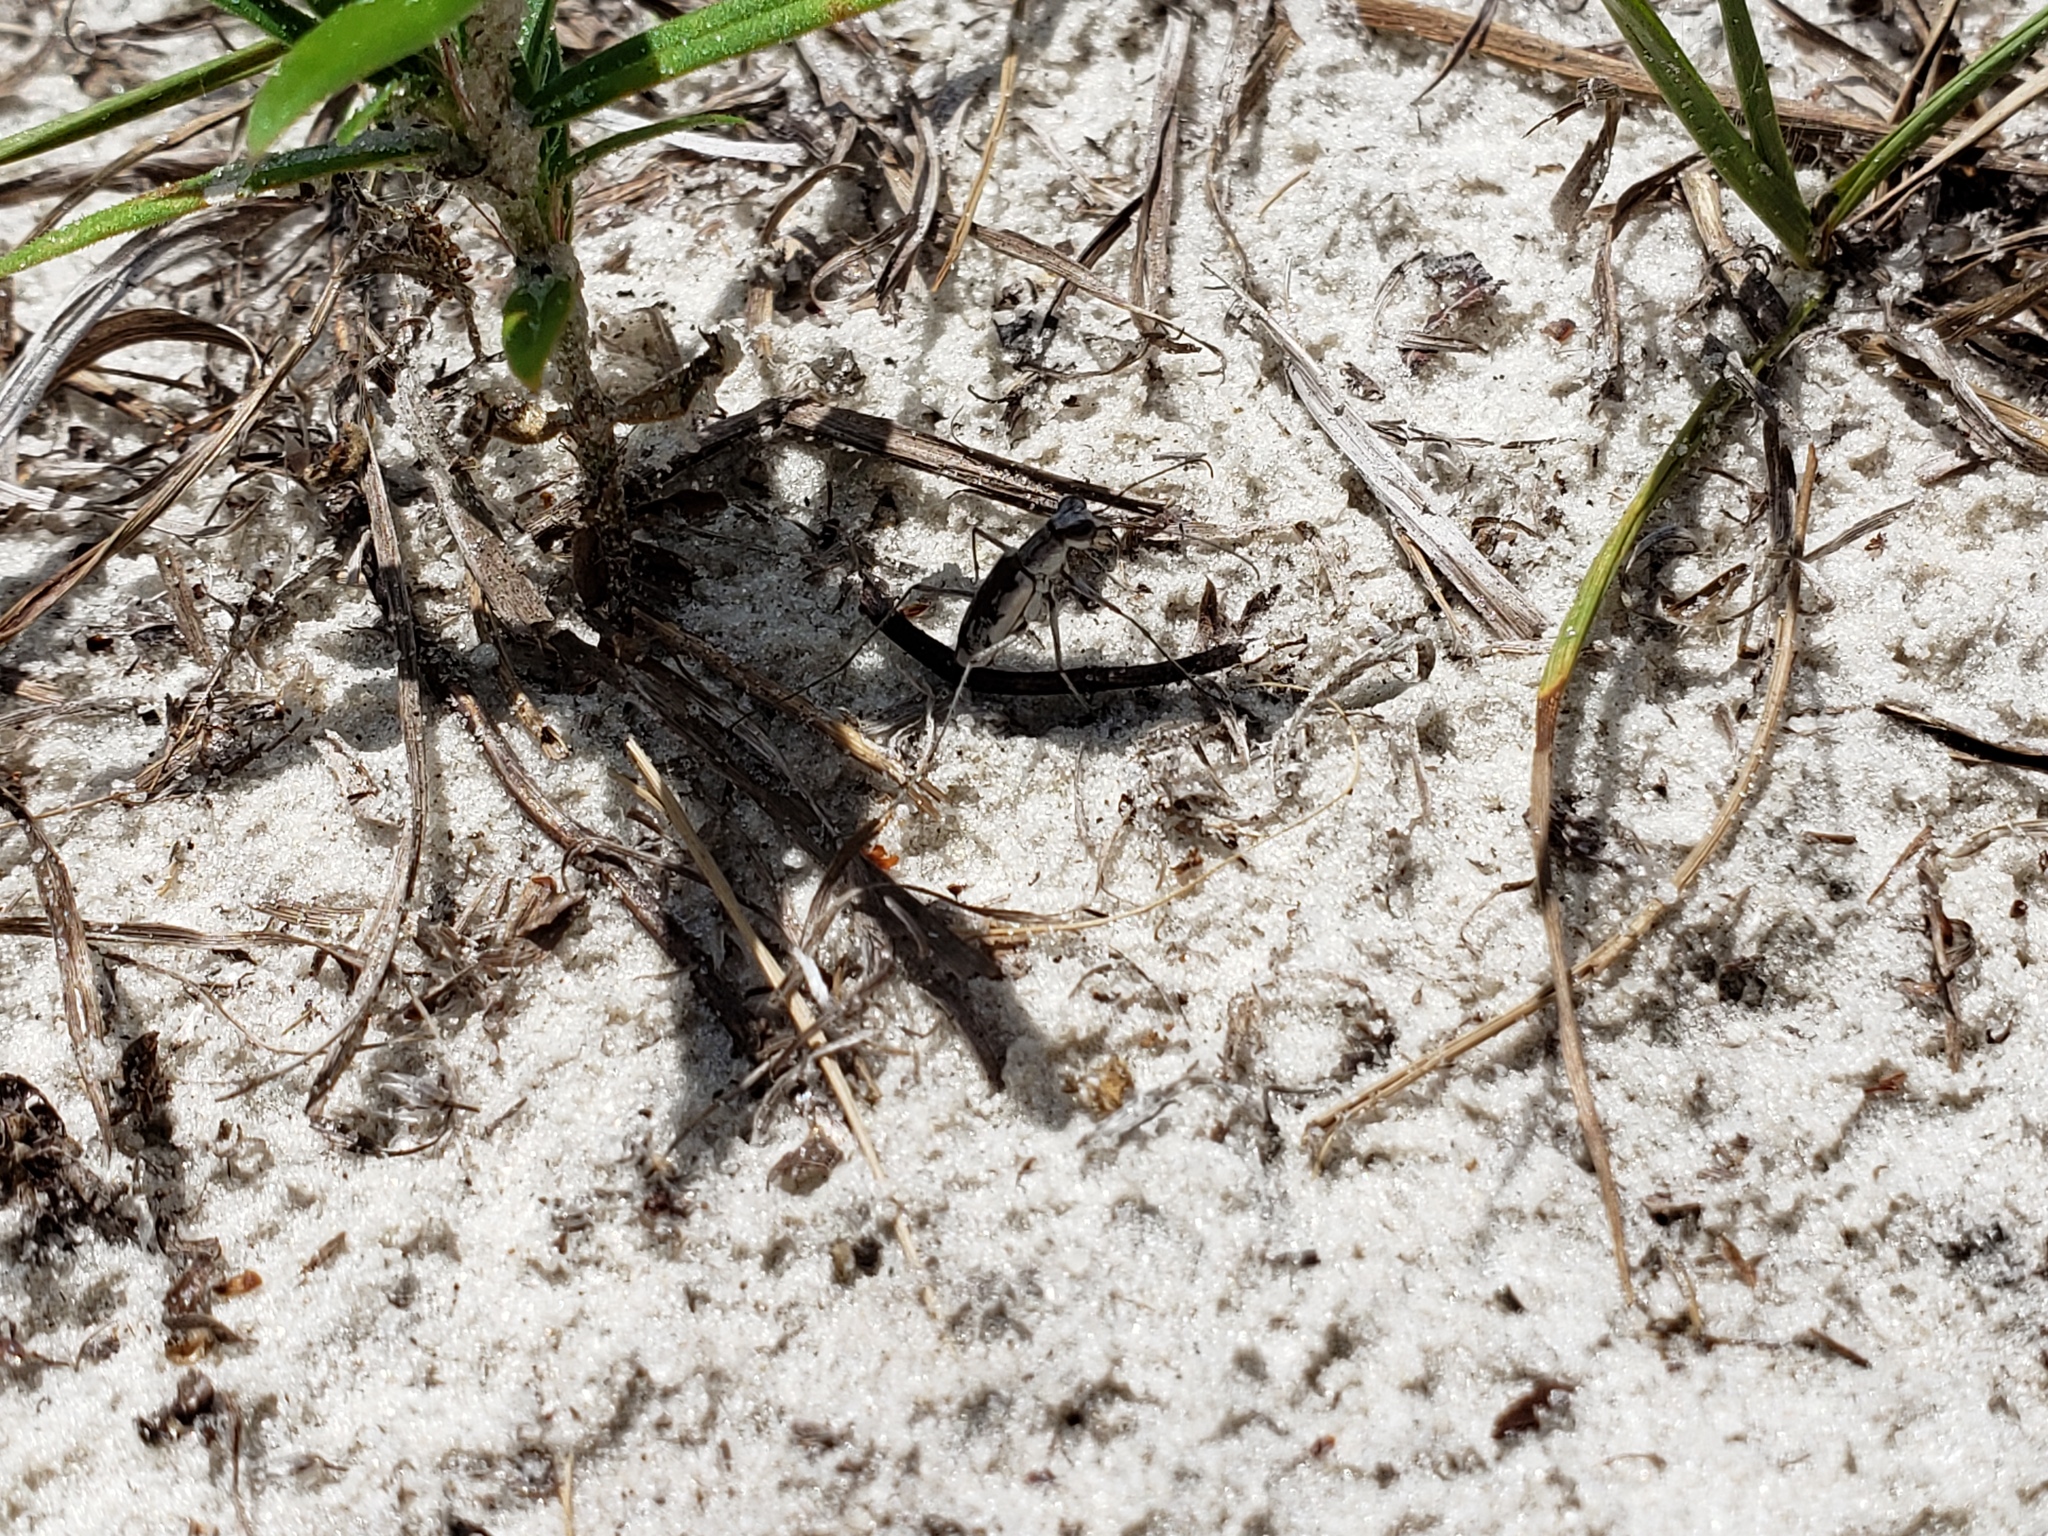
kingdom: Animalia
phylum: Arthropoda
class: Insecta
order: Coleoptera
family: Carabidae
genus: Ellipsoptera
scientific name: Ellipsoptera hirtilabris
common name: Moustached tiger beetle
